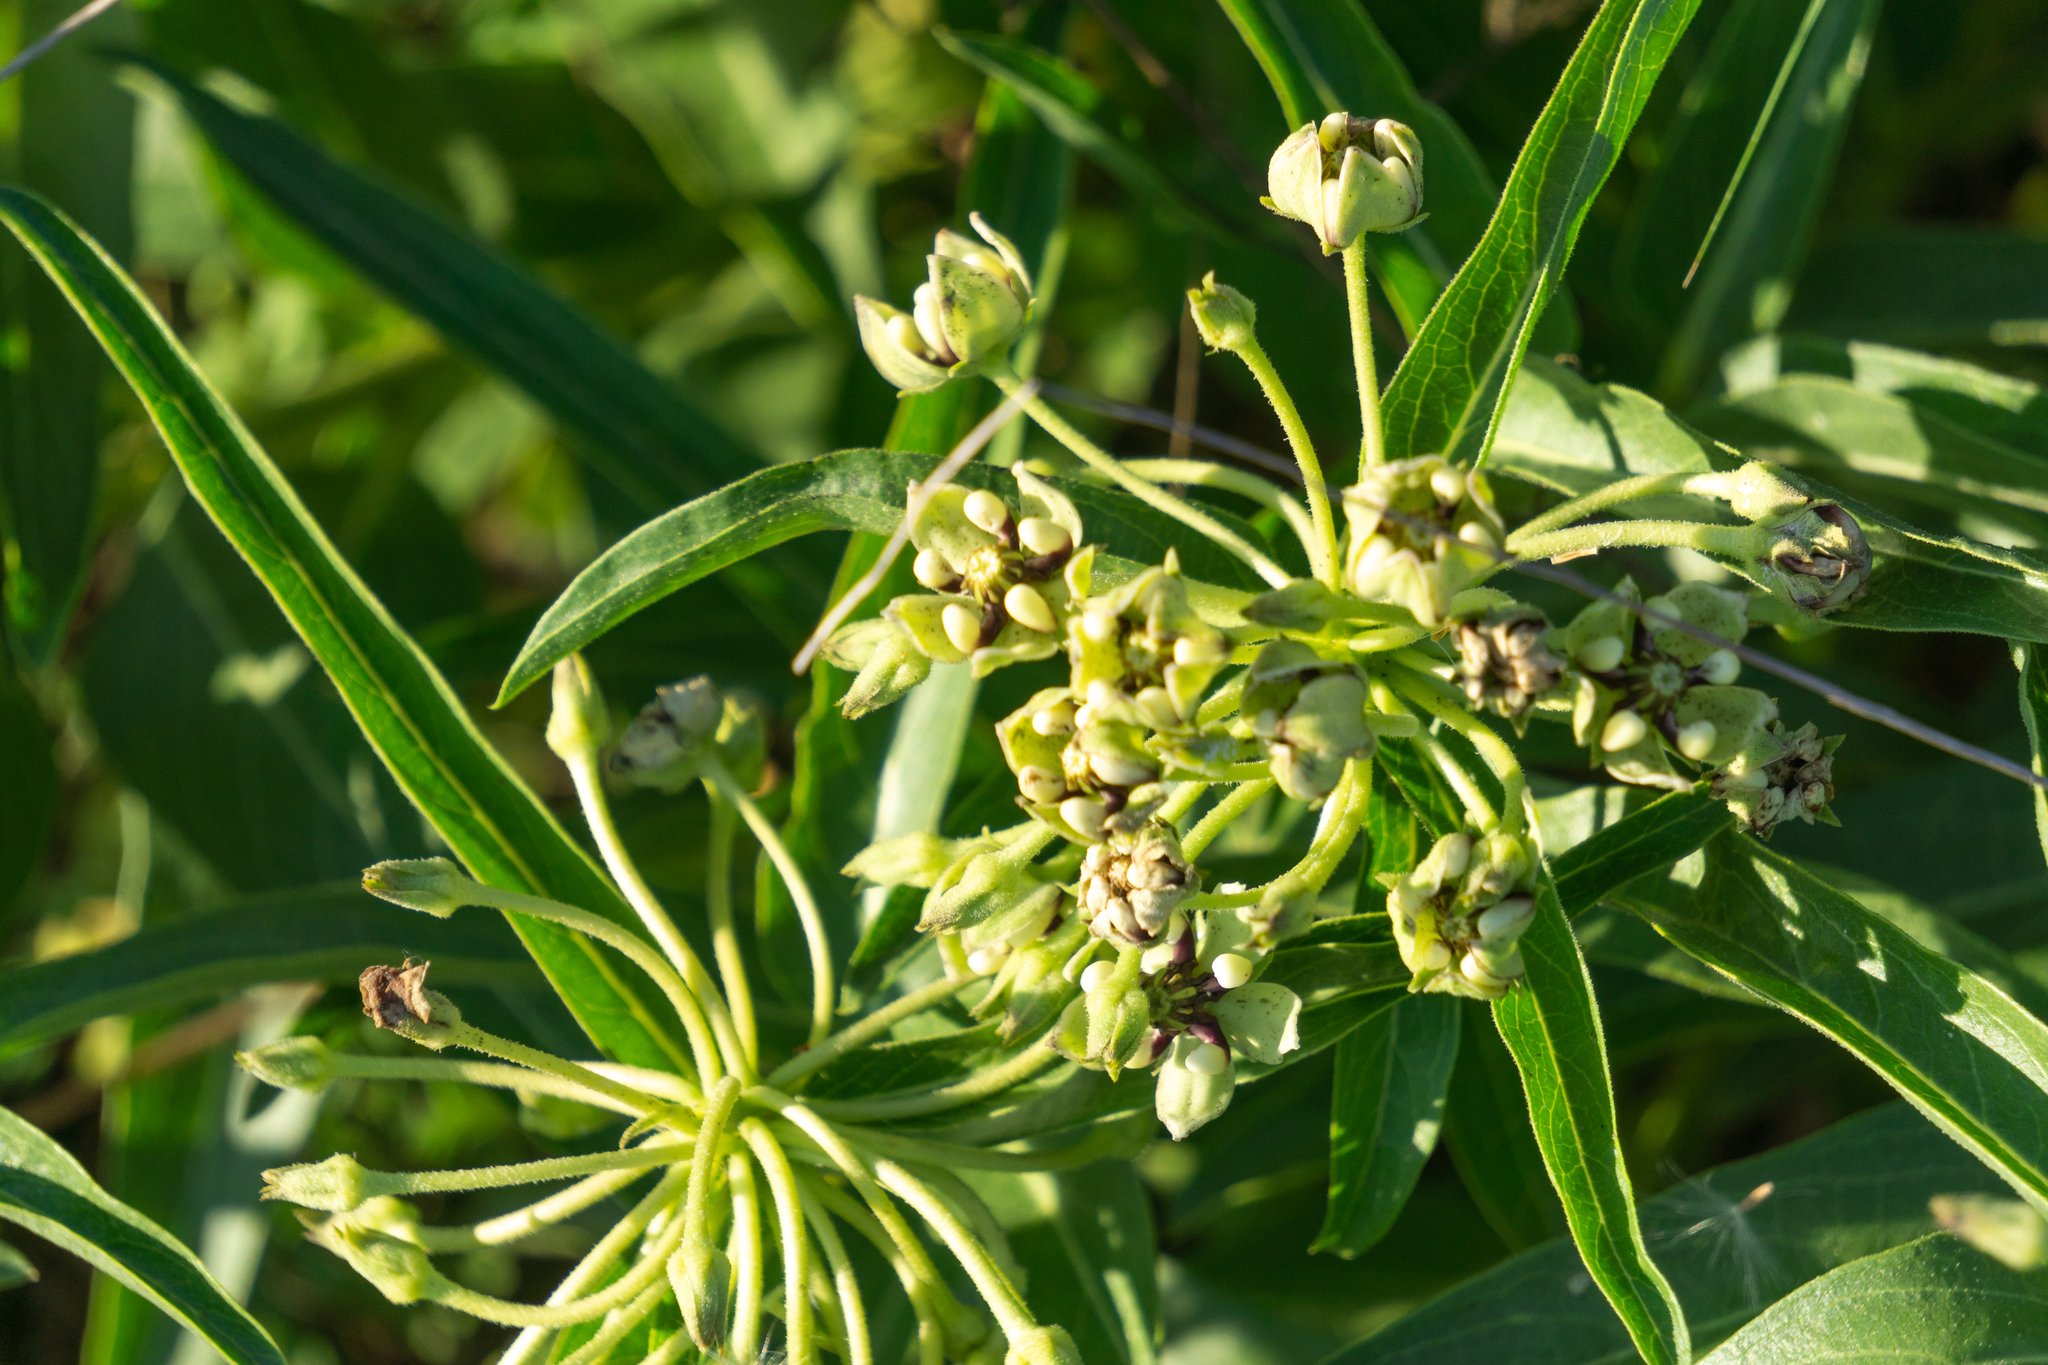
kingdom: Plantae
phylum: Tracheophyta
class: Magnoliopsida
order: Gentianales
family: Apocynaceae
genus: Asclepias
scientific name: Asclepias asperula
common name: Antelope horns
